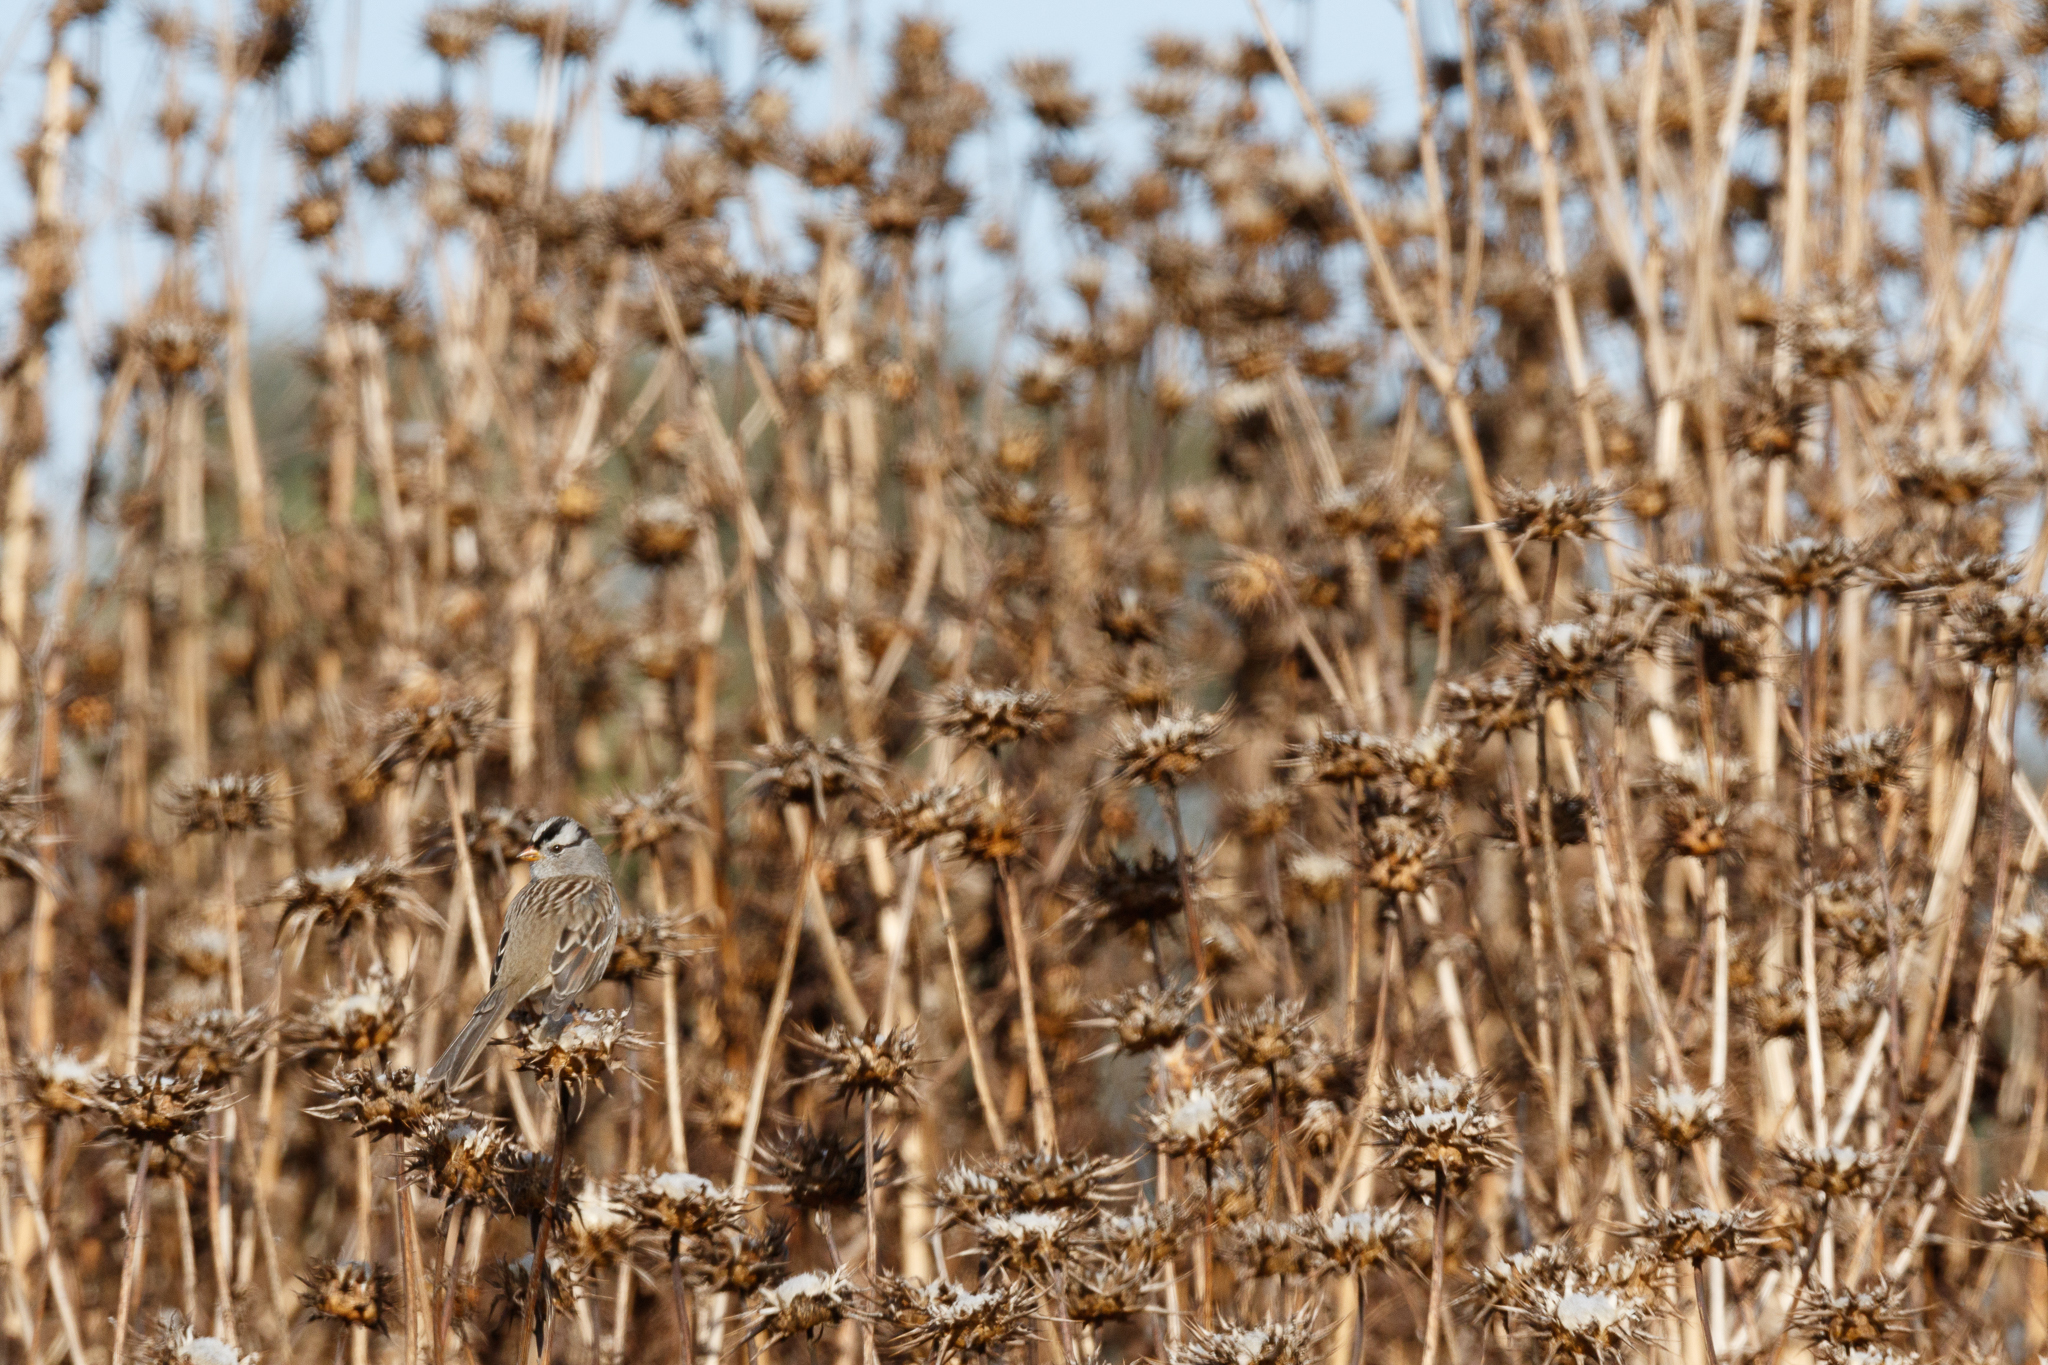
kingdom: Animalia
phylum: Chordata
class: Aves
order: Passeriformes
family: Passerellidae
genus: Zonotrichia
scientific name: Zonotrichia leucophrys
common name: White-crowned sparrow
